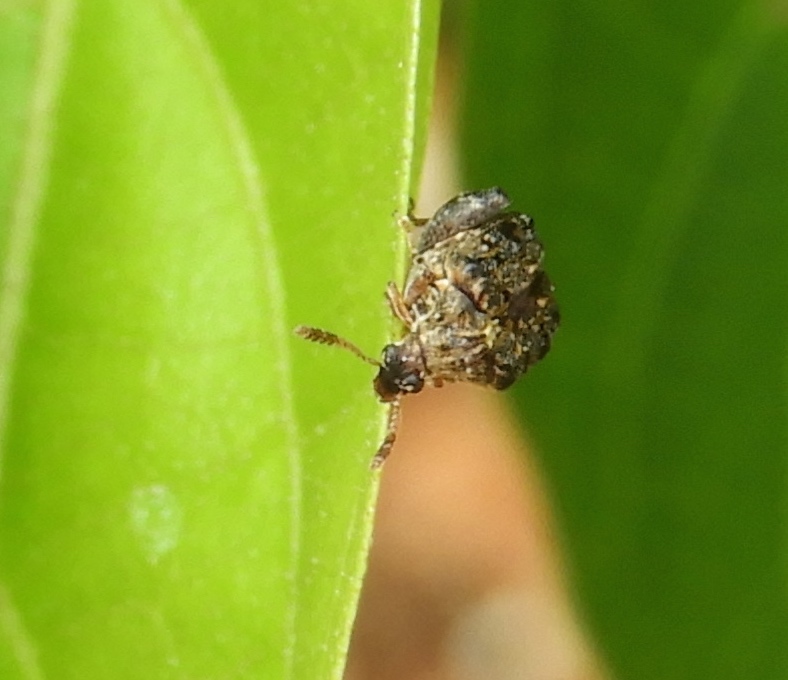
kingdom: Animalia
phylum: Arthropoda
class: Insecta
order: Coleoptera
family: Bruchidae
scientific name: Bruchidae
